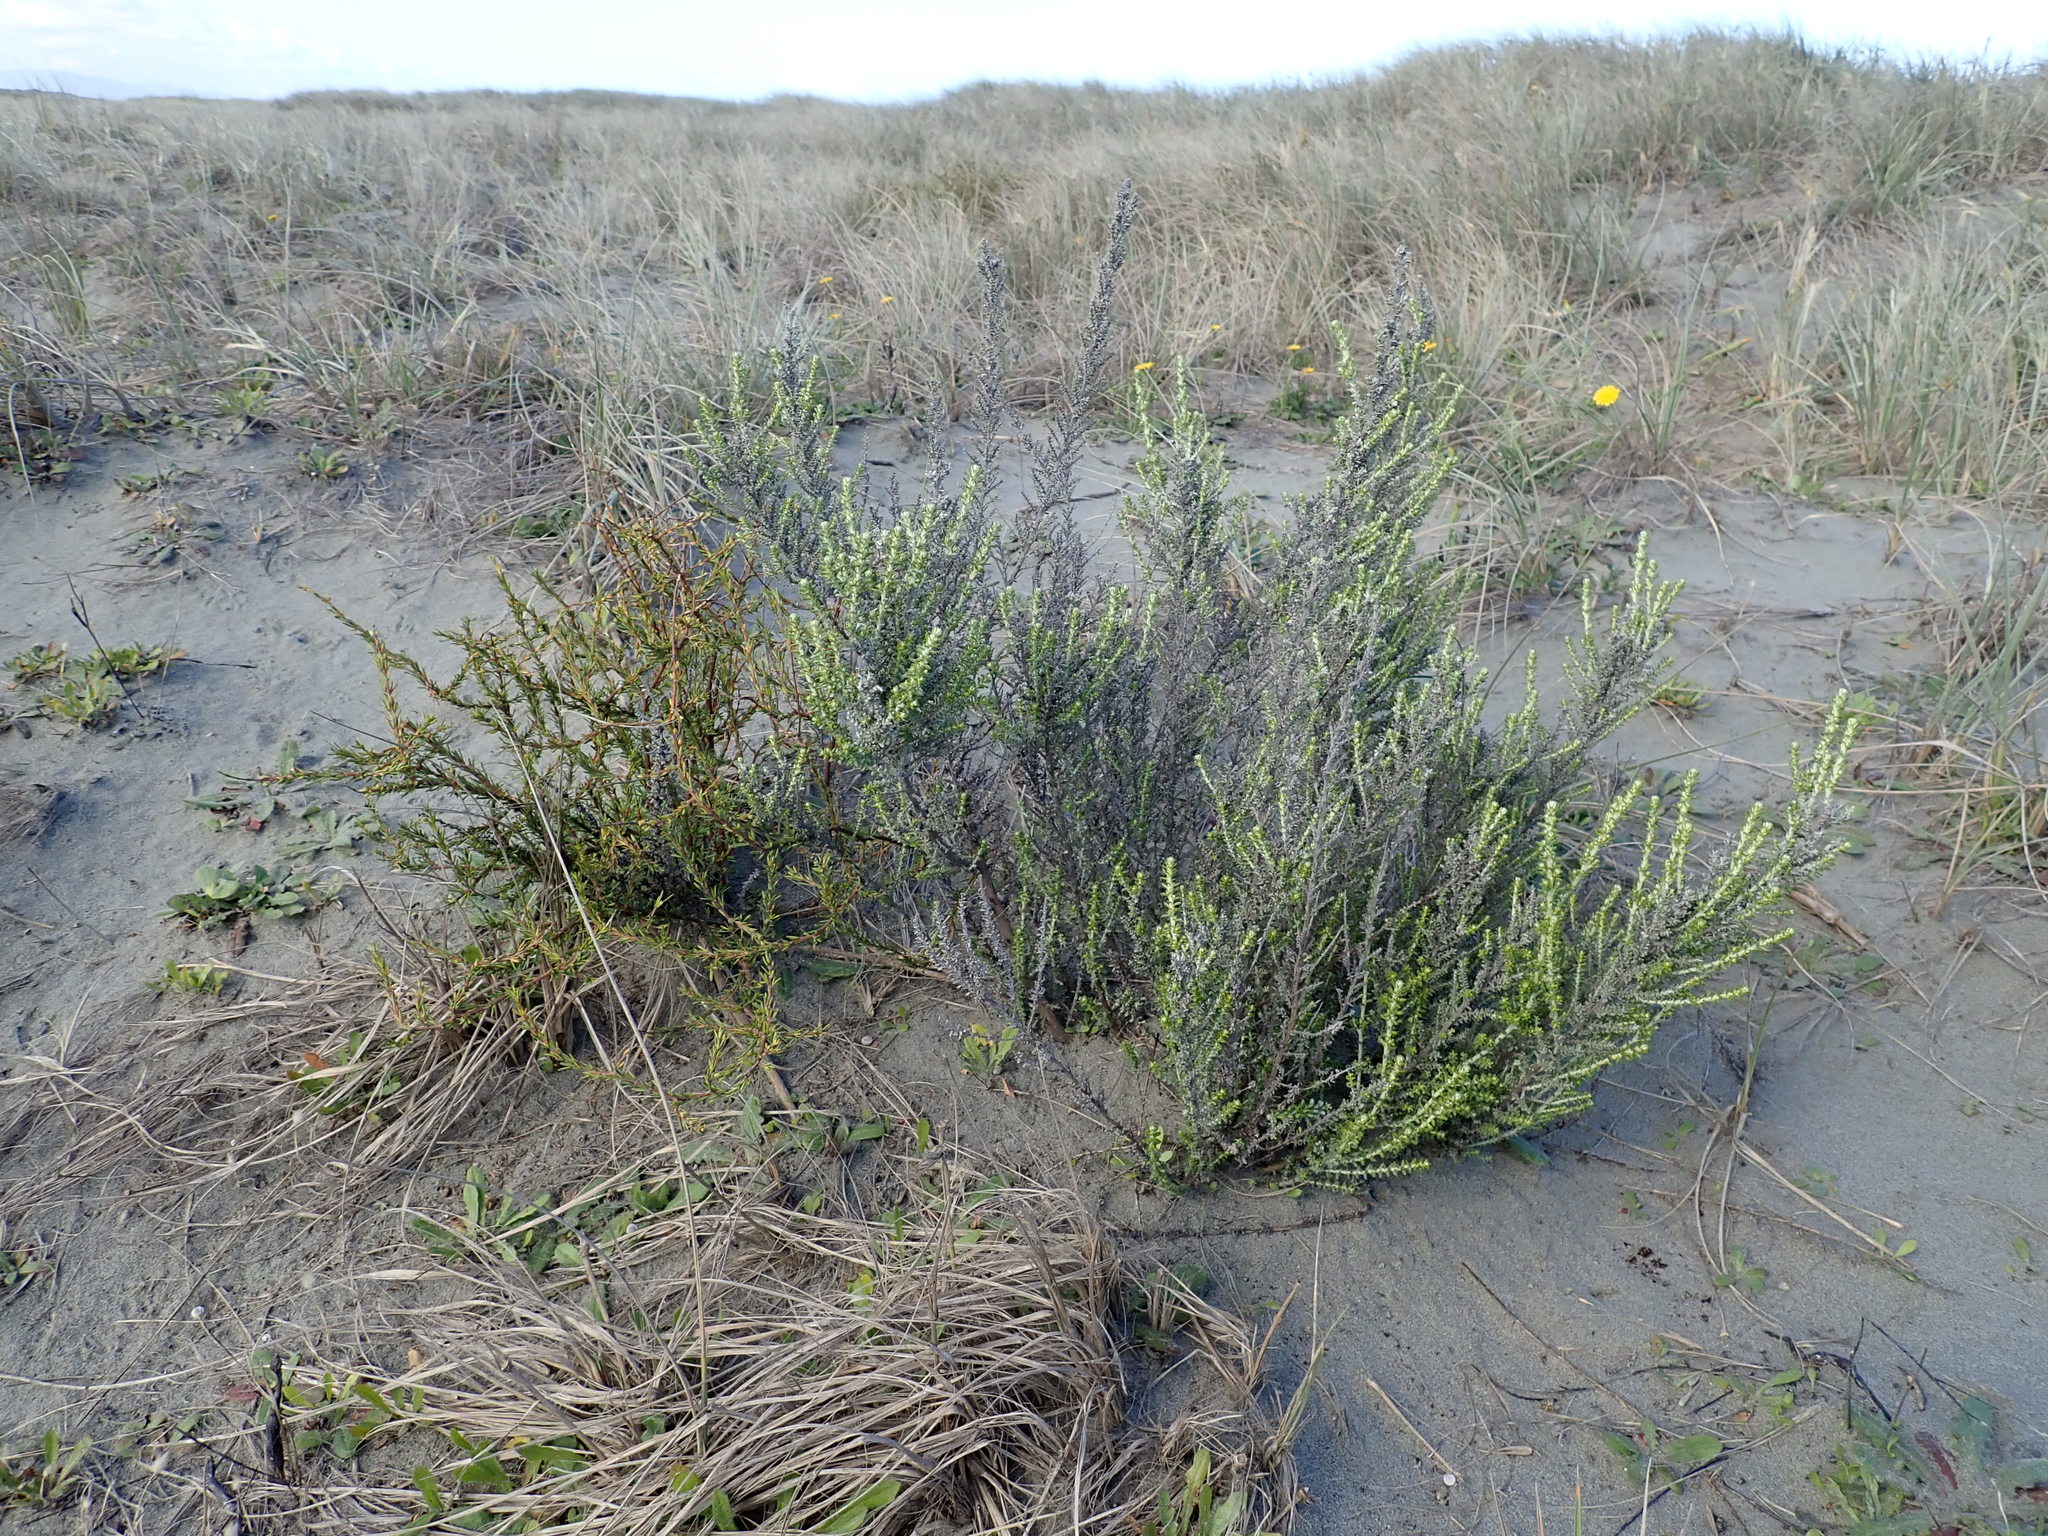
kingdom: Plantae
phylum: Tracheophyta
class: Magnoliopsida
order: Asterales
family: Asteraceae
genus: Ozothamnus
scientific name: Ozothamnus leptophyllus
